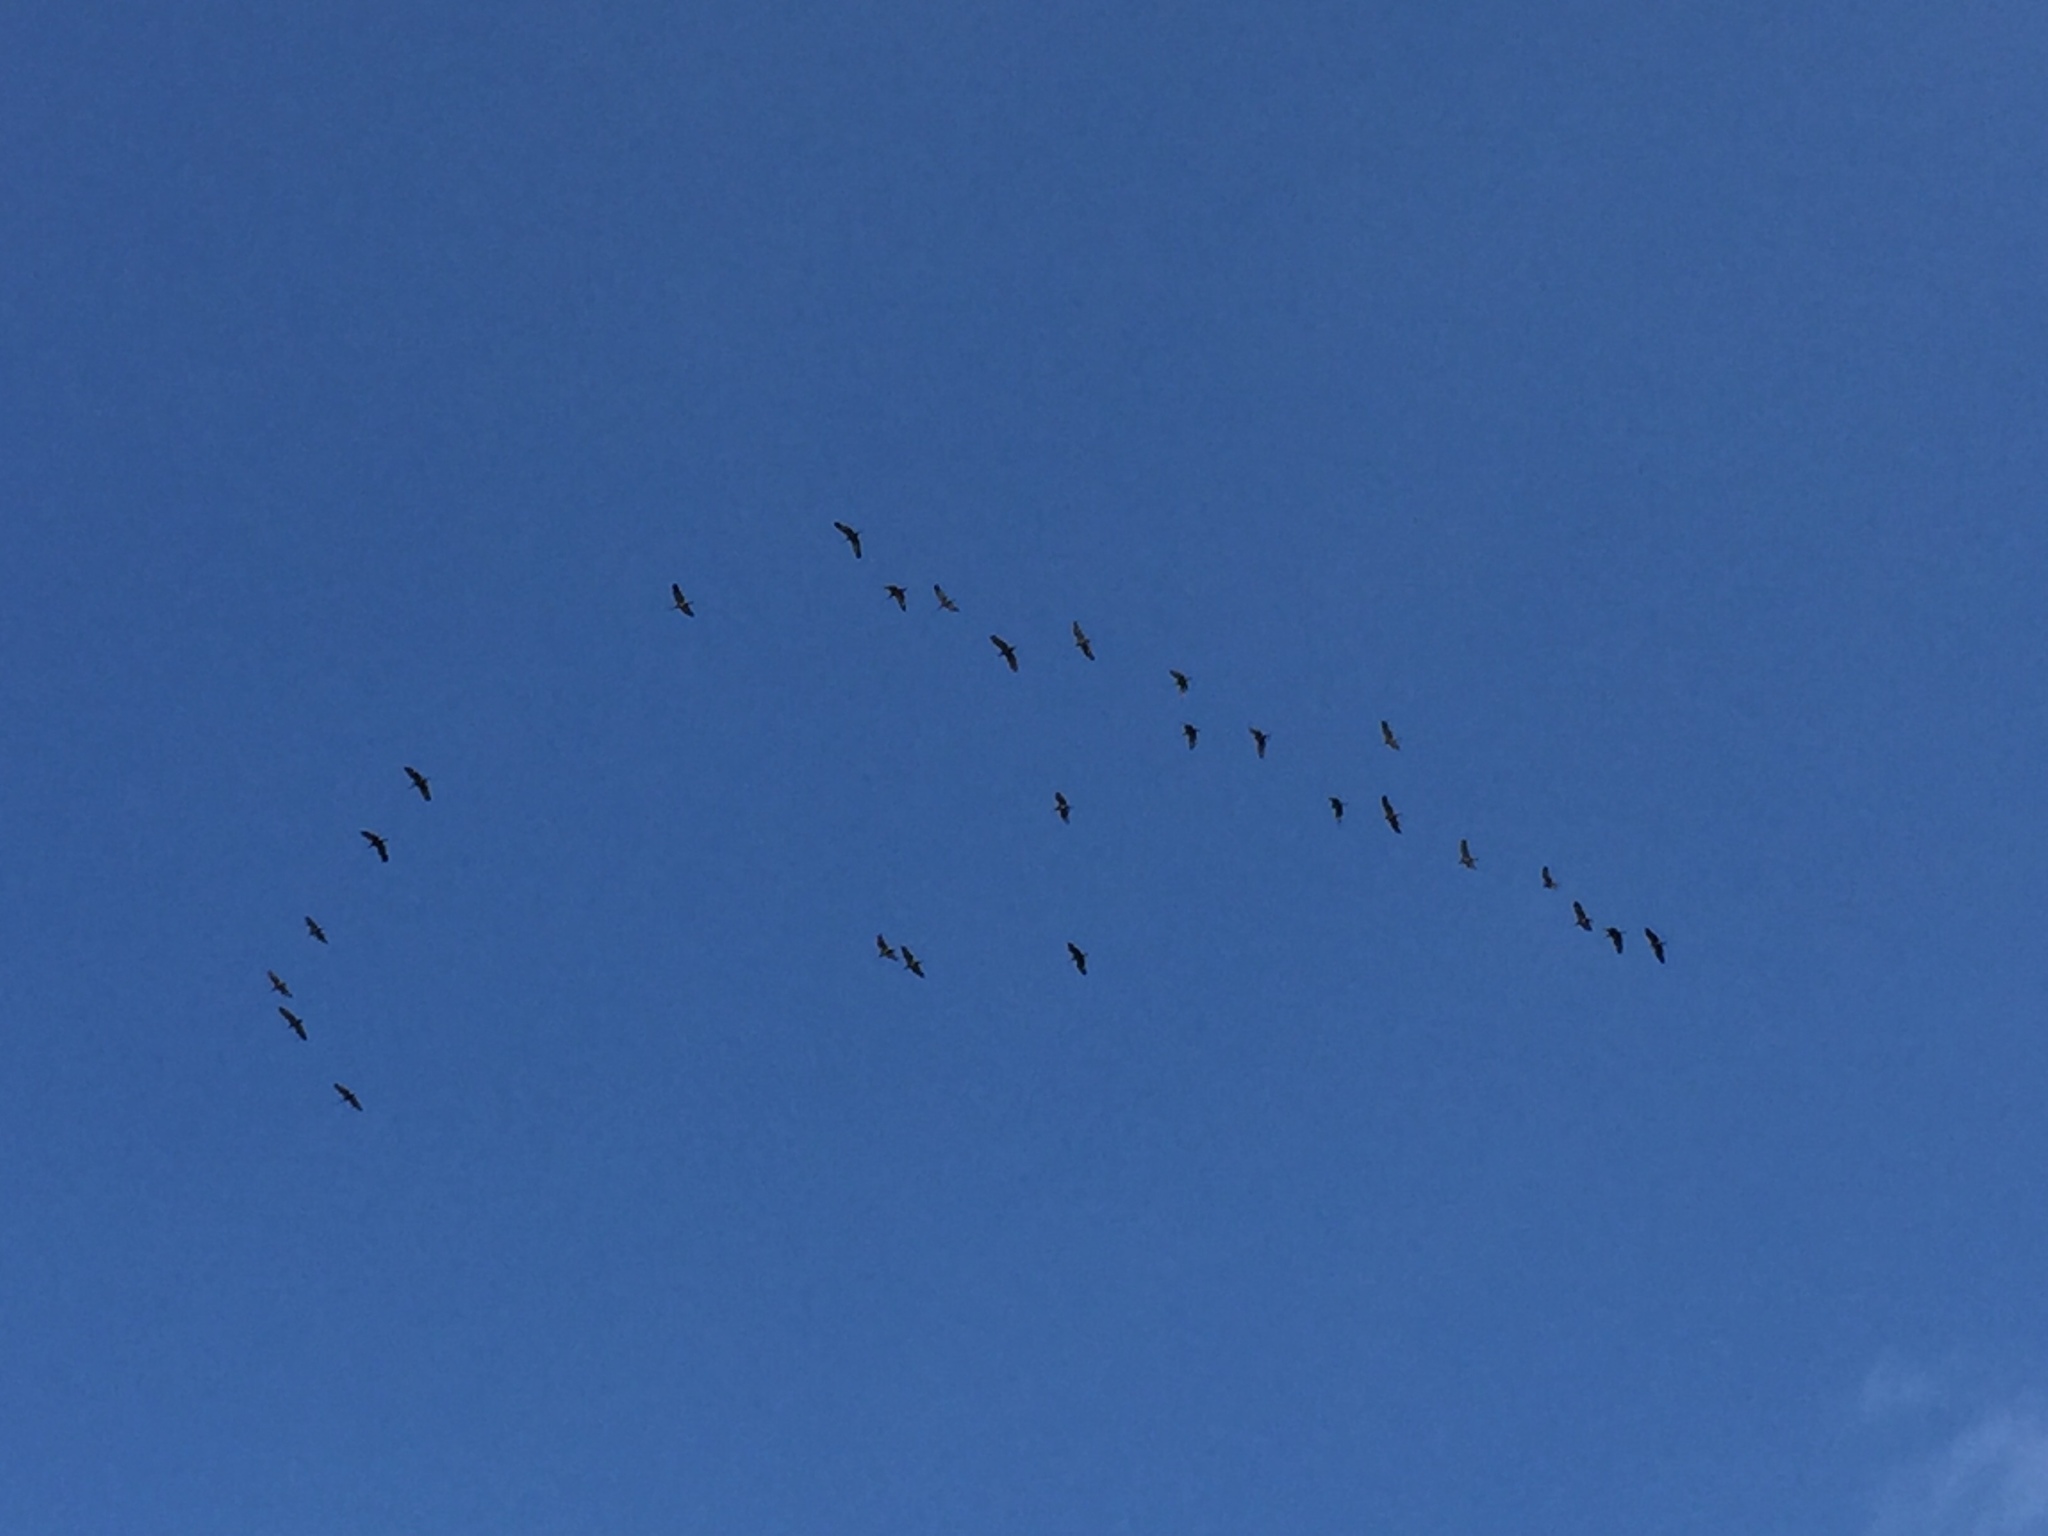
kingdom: Animalia
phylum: Chordata
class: Aves
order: Gruiformes
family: Gruidae
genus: Grus
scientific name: Grus canadensis
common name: Sandhill crane
